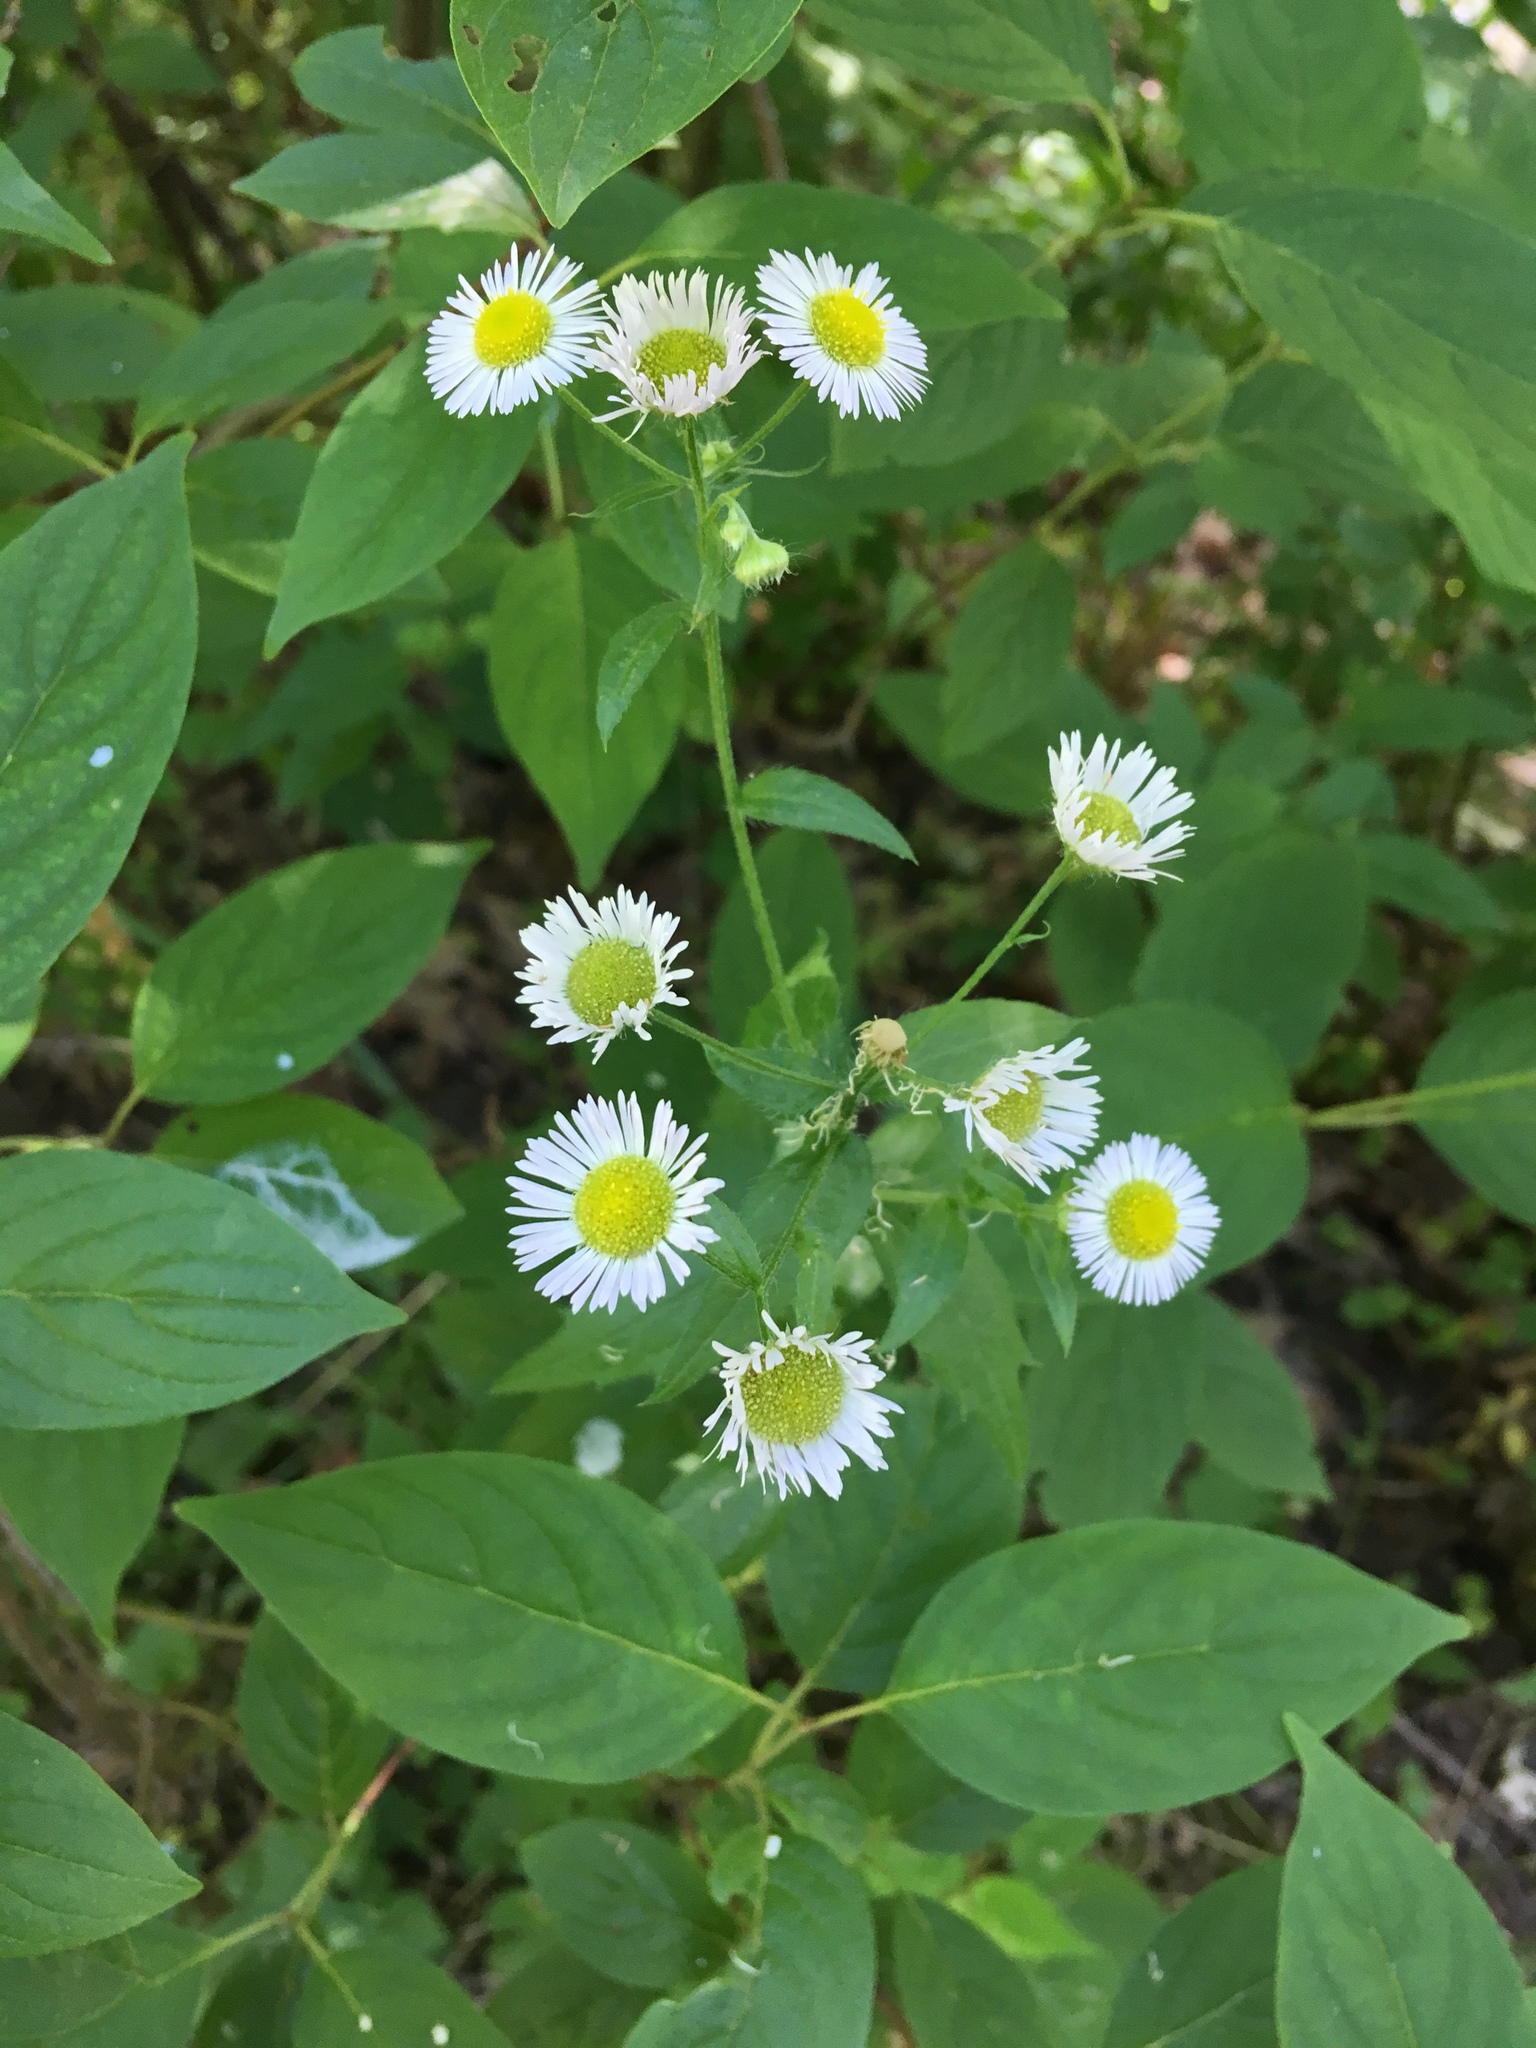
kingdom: Plantae
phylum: Tracheophyta
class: Magnoliopsida
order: Asterales
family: Asteraceae
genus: Erigeron
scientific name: Erigeron annuus
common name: Tall fleabane
